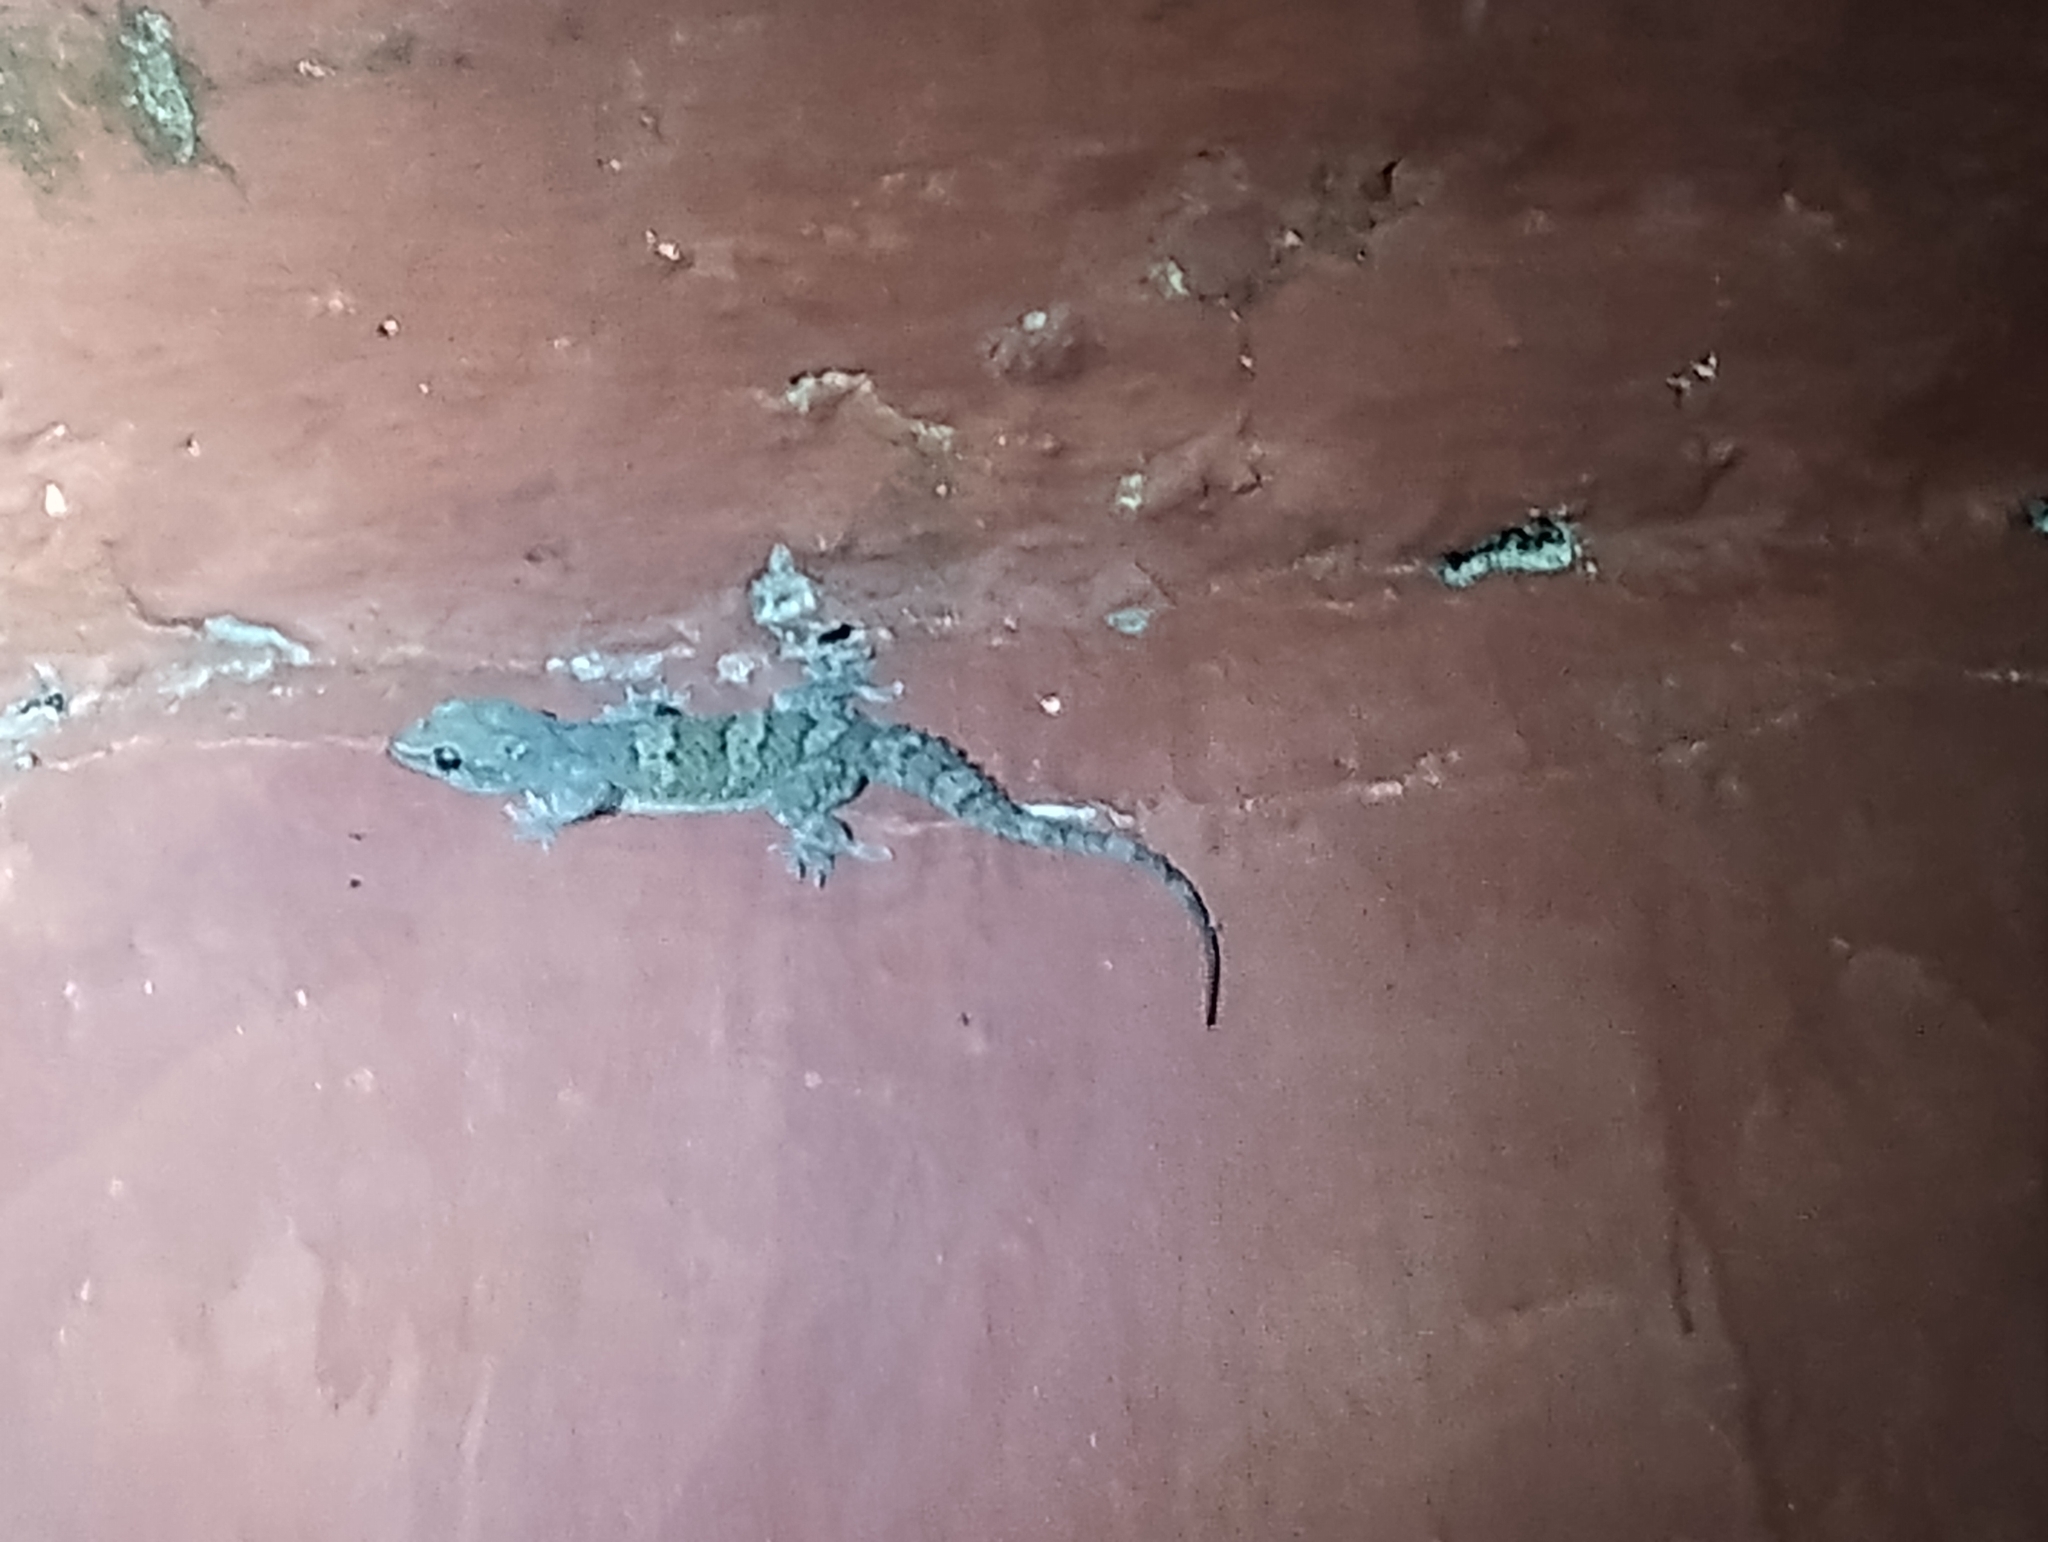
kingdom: Animalia
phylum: Chordata
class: Squamata
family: Gekkonidae
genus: Hemidactylus
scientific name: Hemidactylus kangerensis
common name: Kanger valley rock gecko
